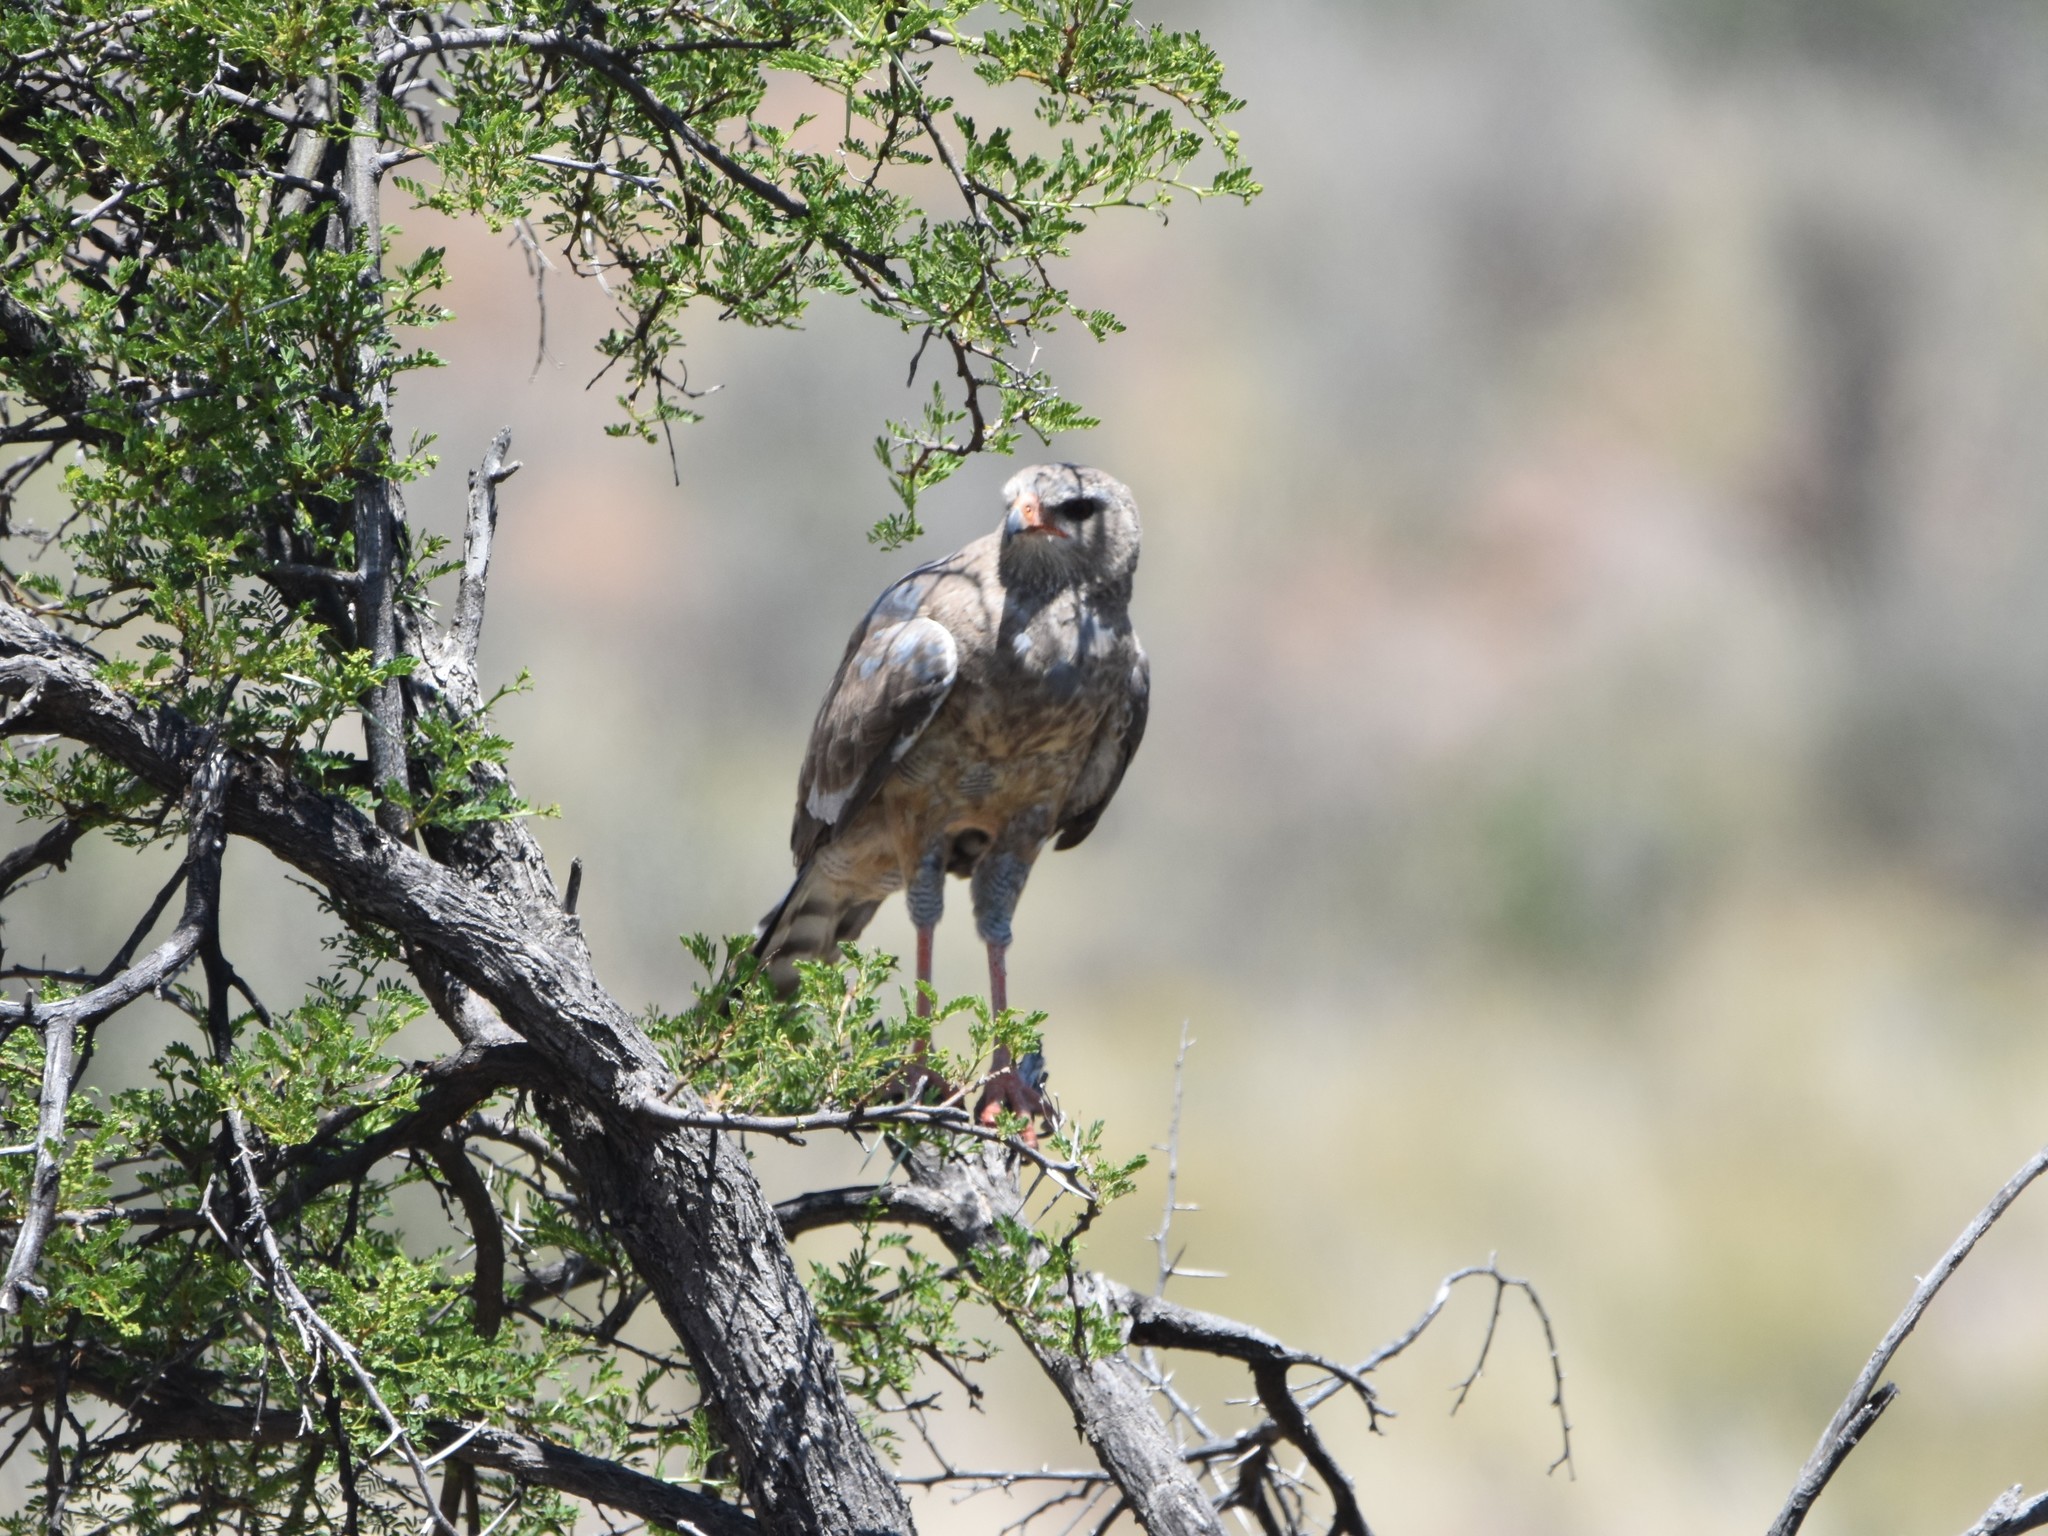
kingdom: Animalia
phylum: Chordata
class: Aves
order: Accipitriformes
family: Accipitridae
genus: Melierax
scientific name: Melierax canorus
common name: Pale chanting-goshawk
